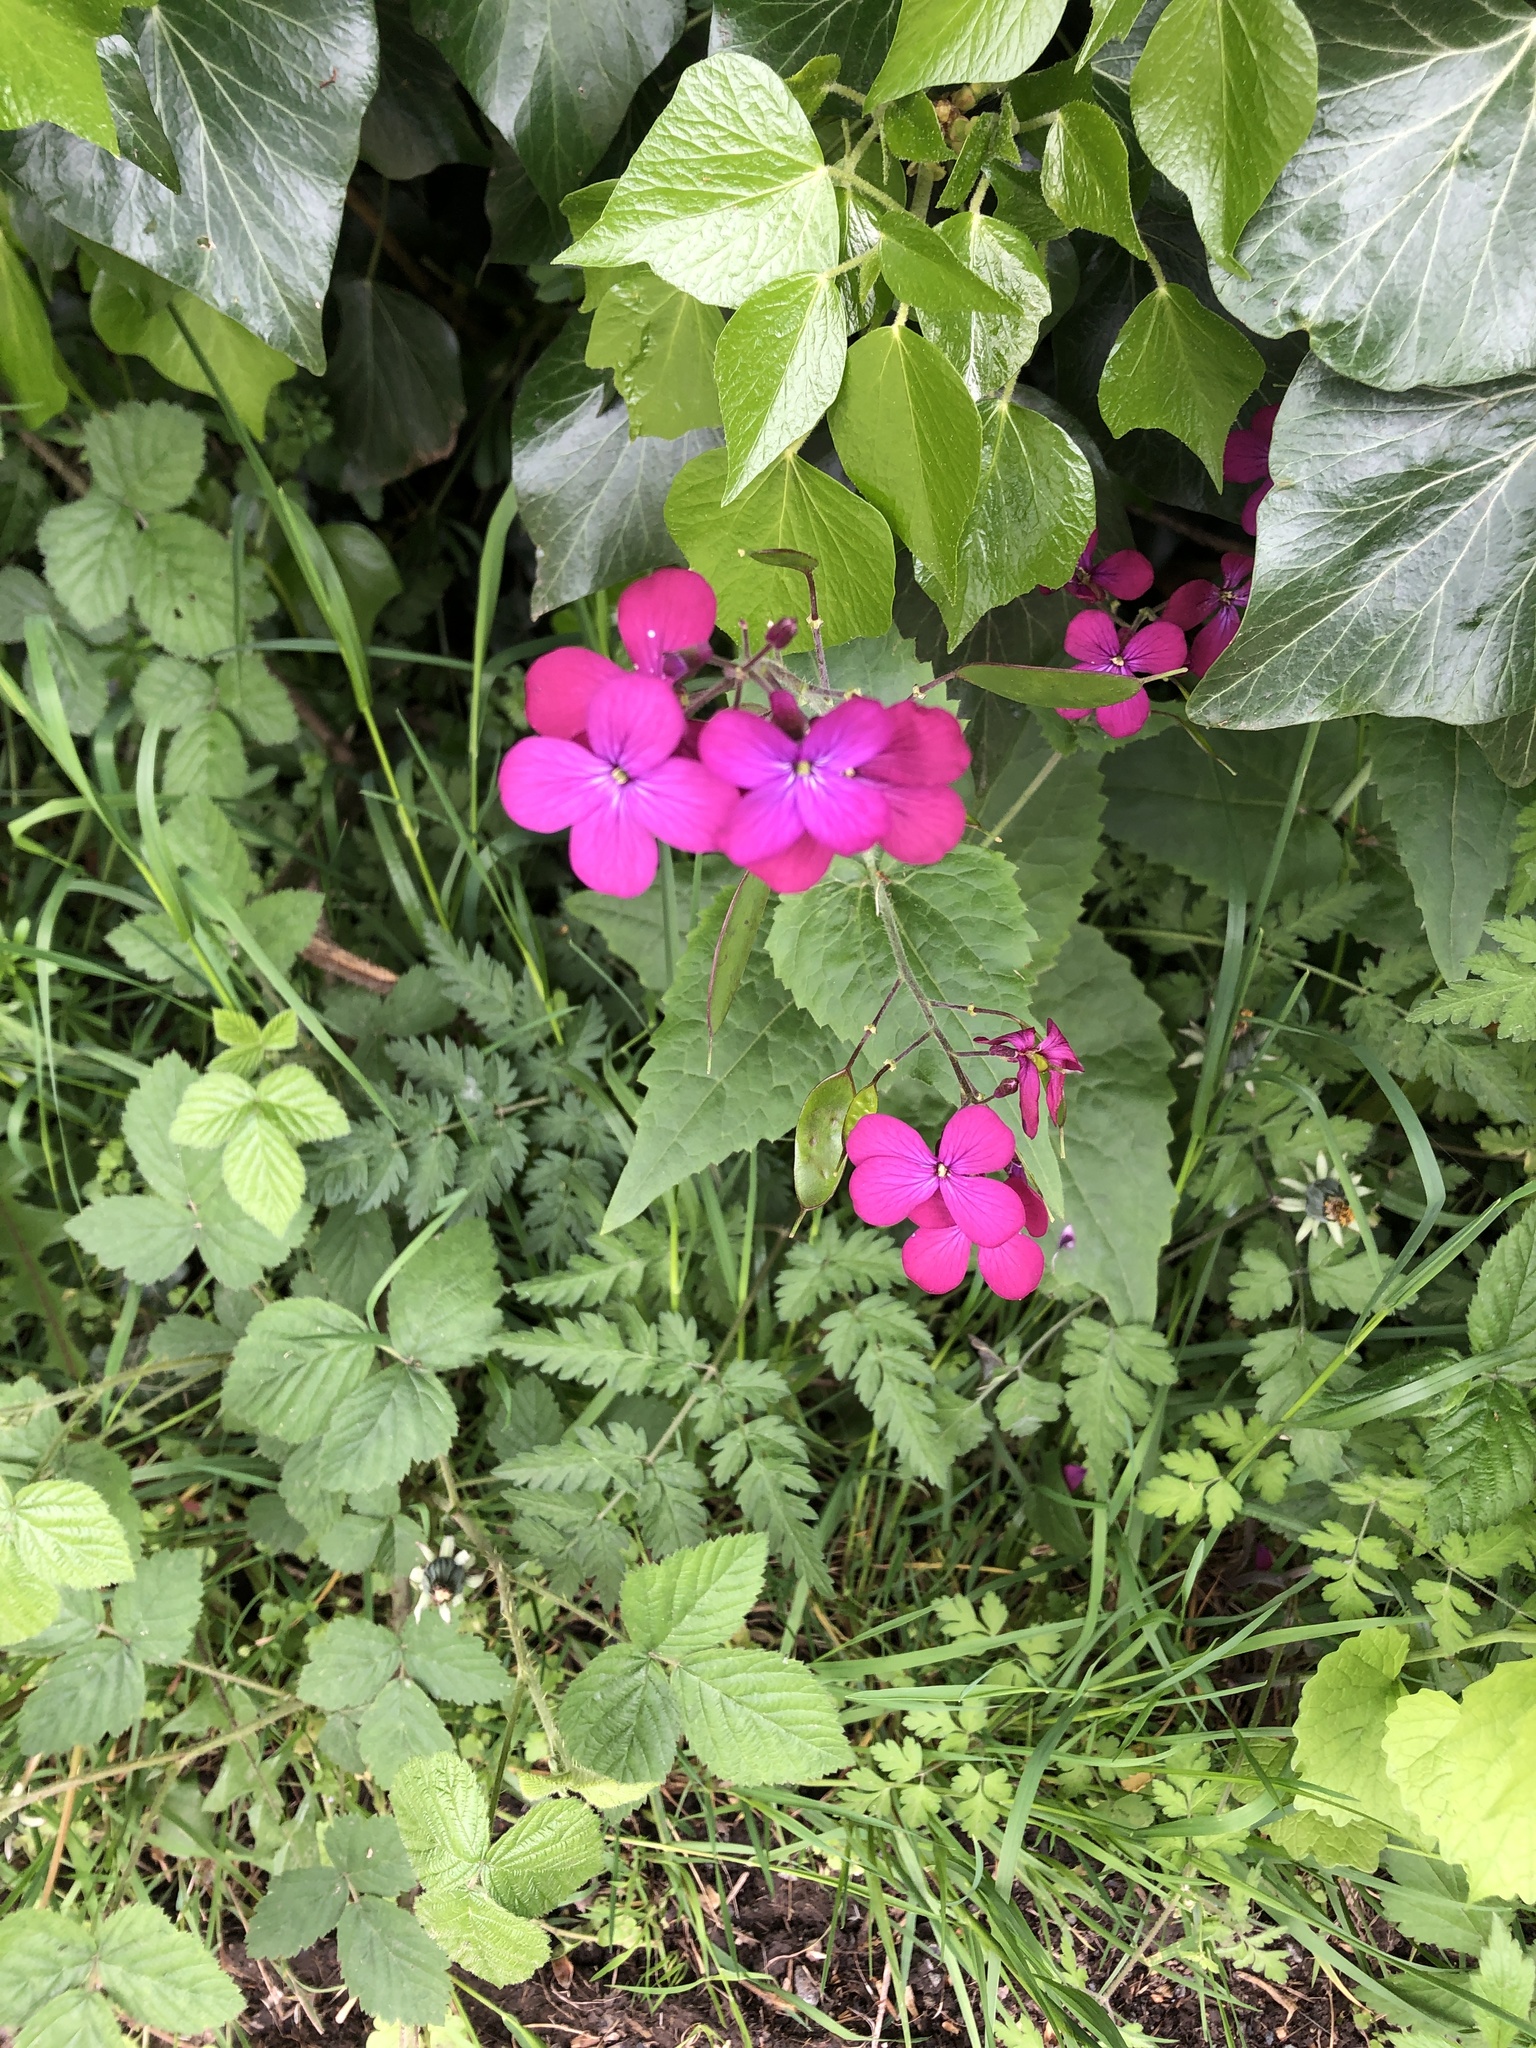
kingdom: Plantae
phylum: Tracheophyta
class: Magnoliopsida
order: Brassicales
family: Brassicaceae
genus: Lunaria
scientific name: Lunaria annua
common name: Honesty
